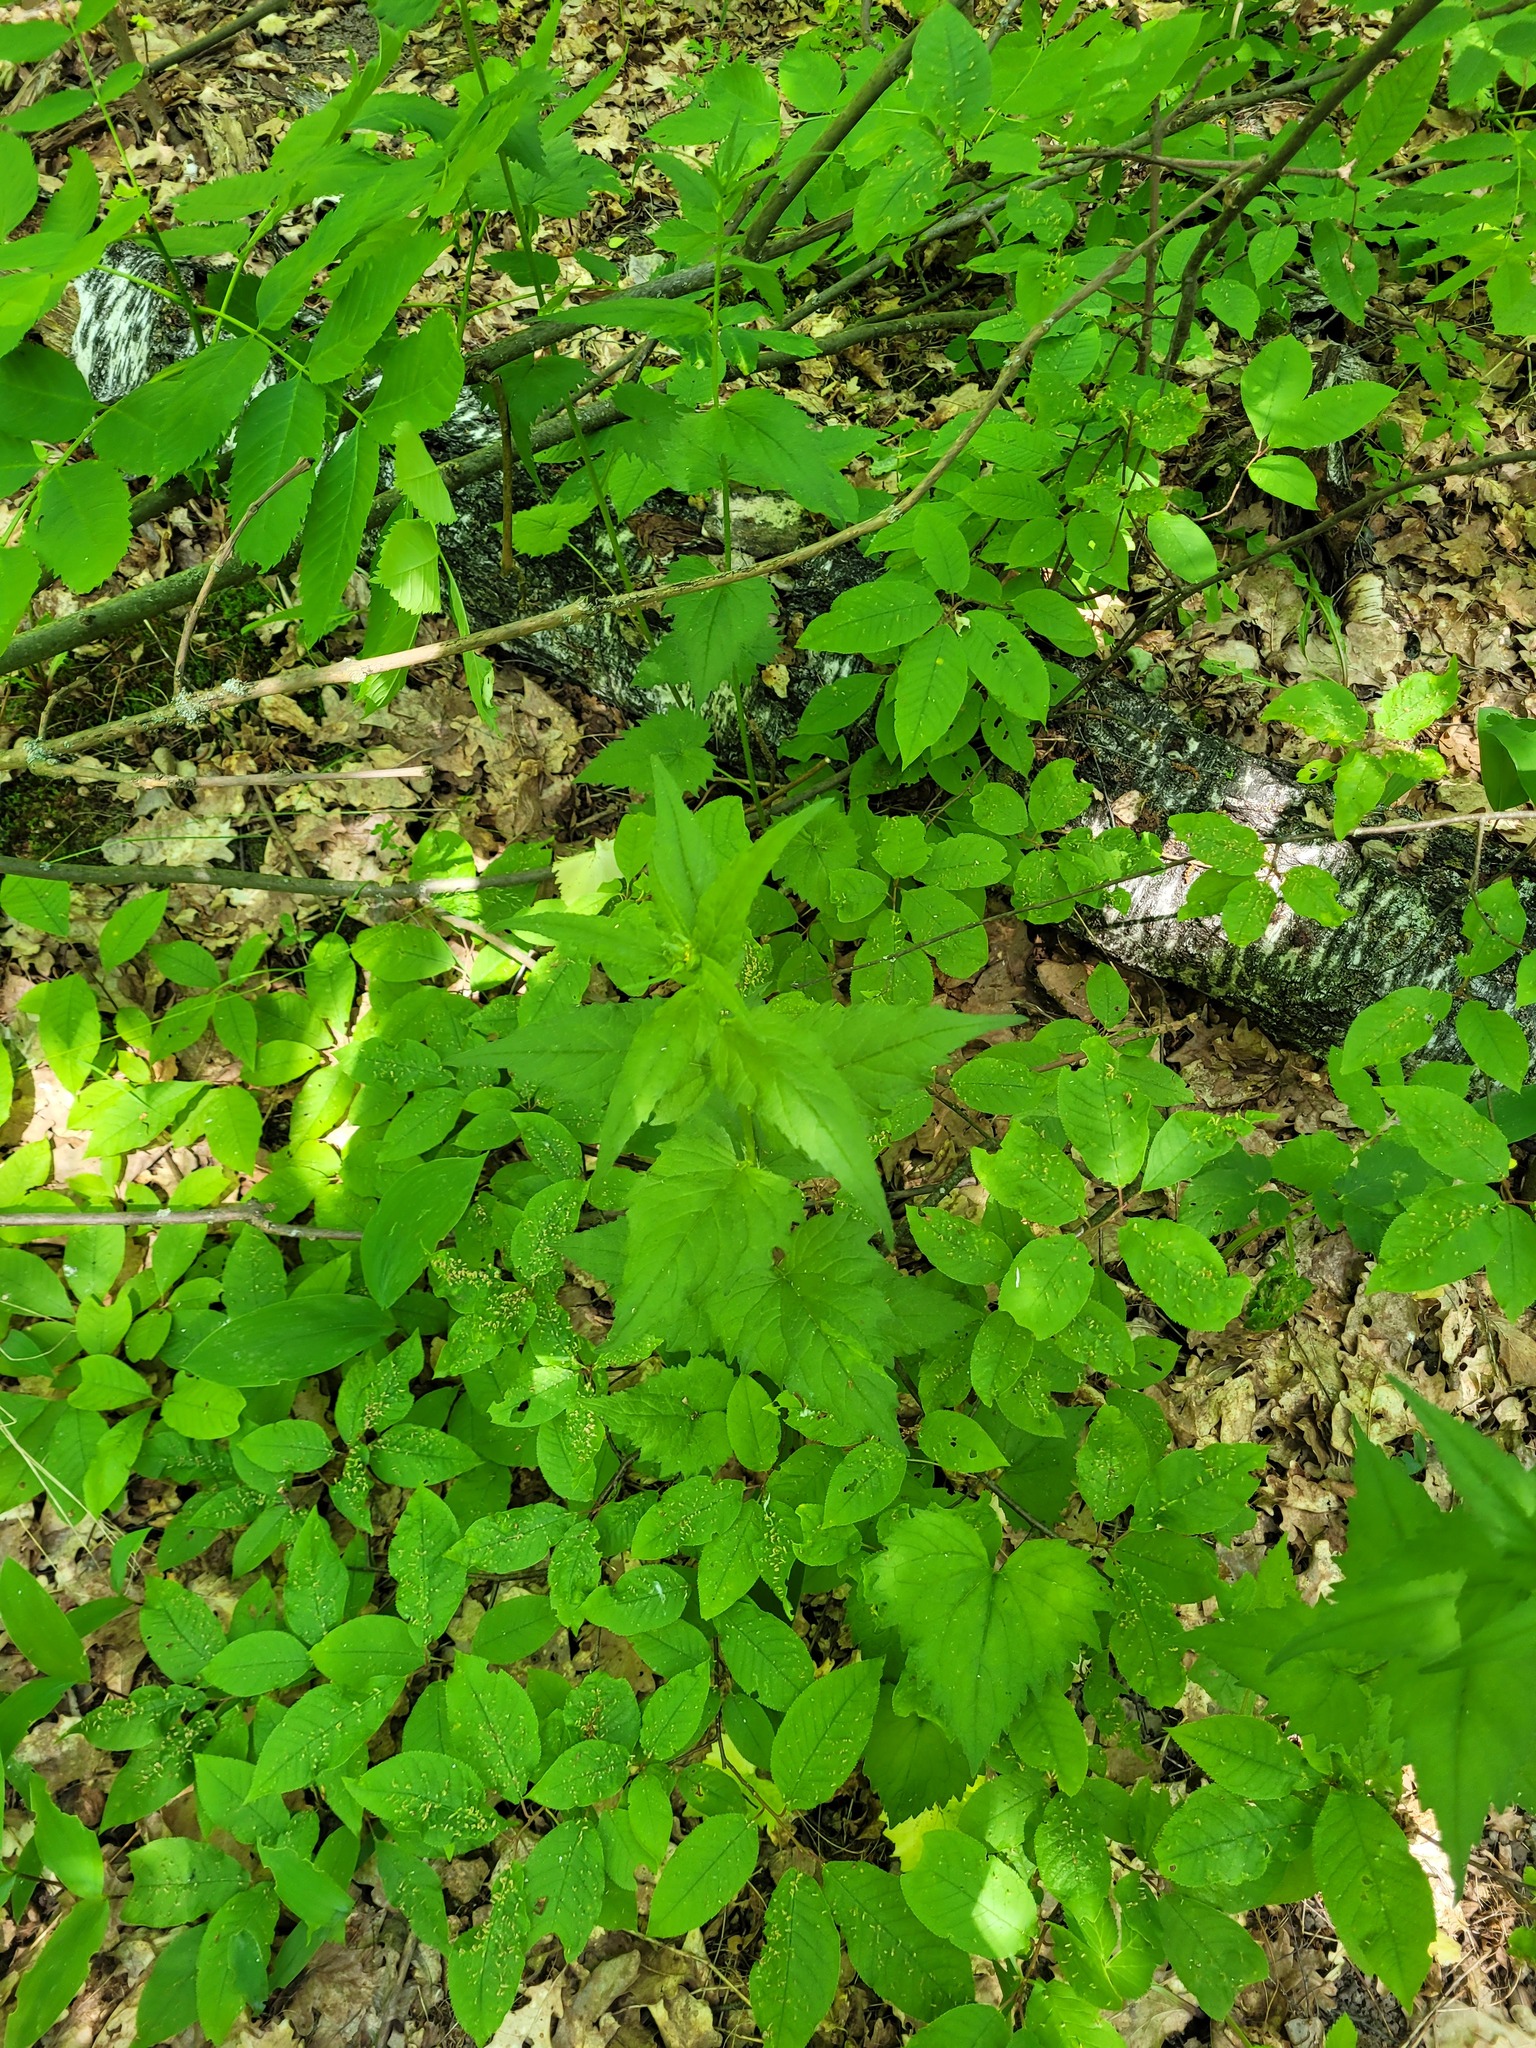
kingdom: Plantae
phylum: Tracheophyta
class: Magnoliopsida
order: Asterales
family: Campanulaceae
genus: Campanula
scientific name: Campanula trachelium
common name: Nettle-leaved bellflower
